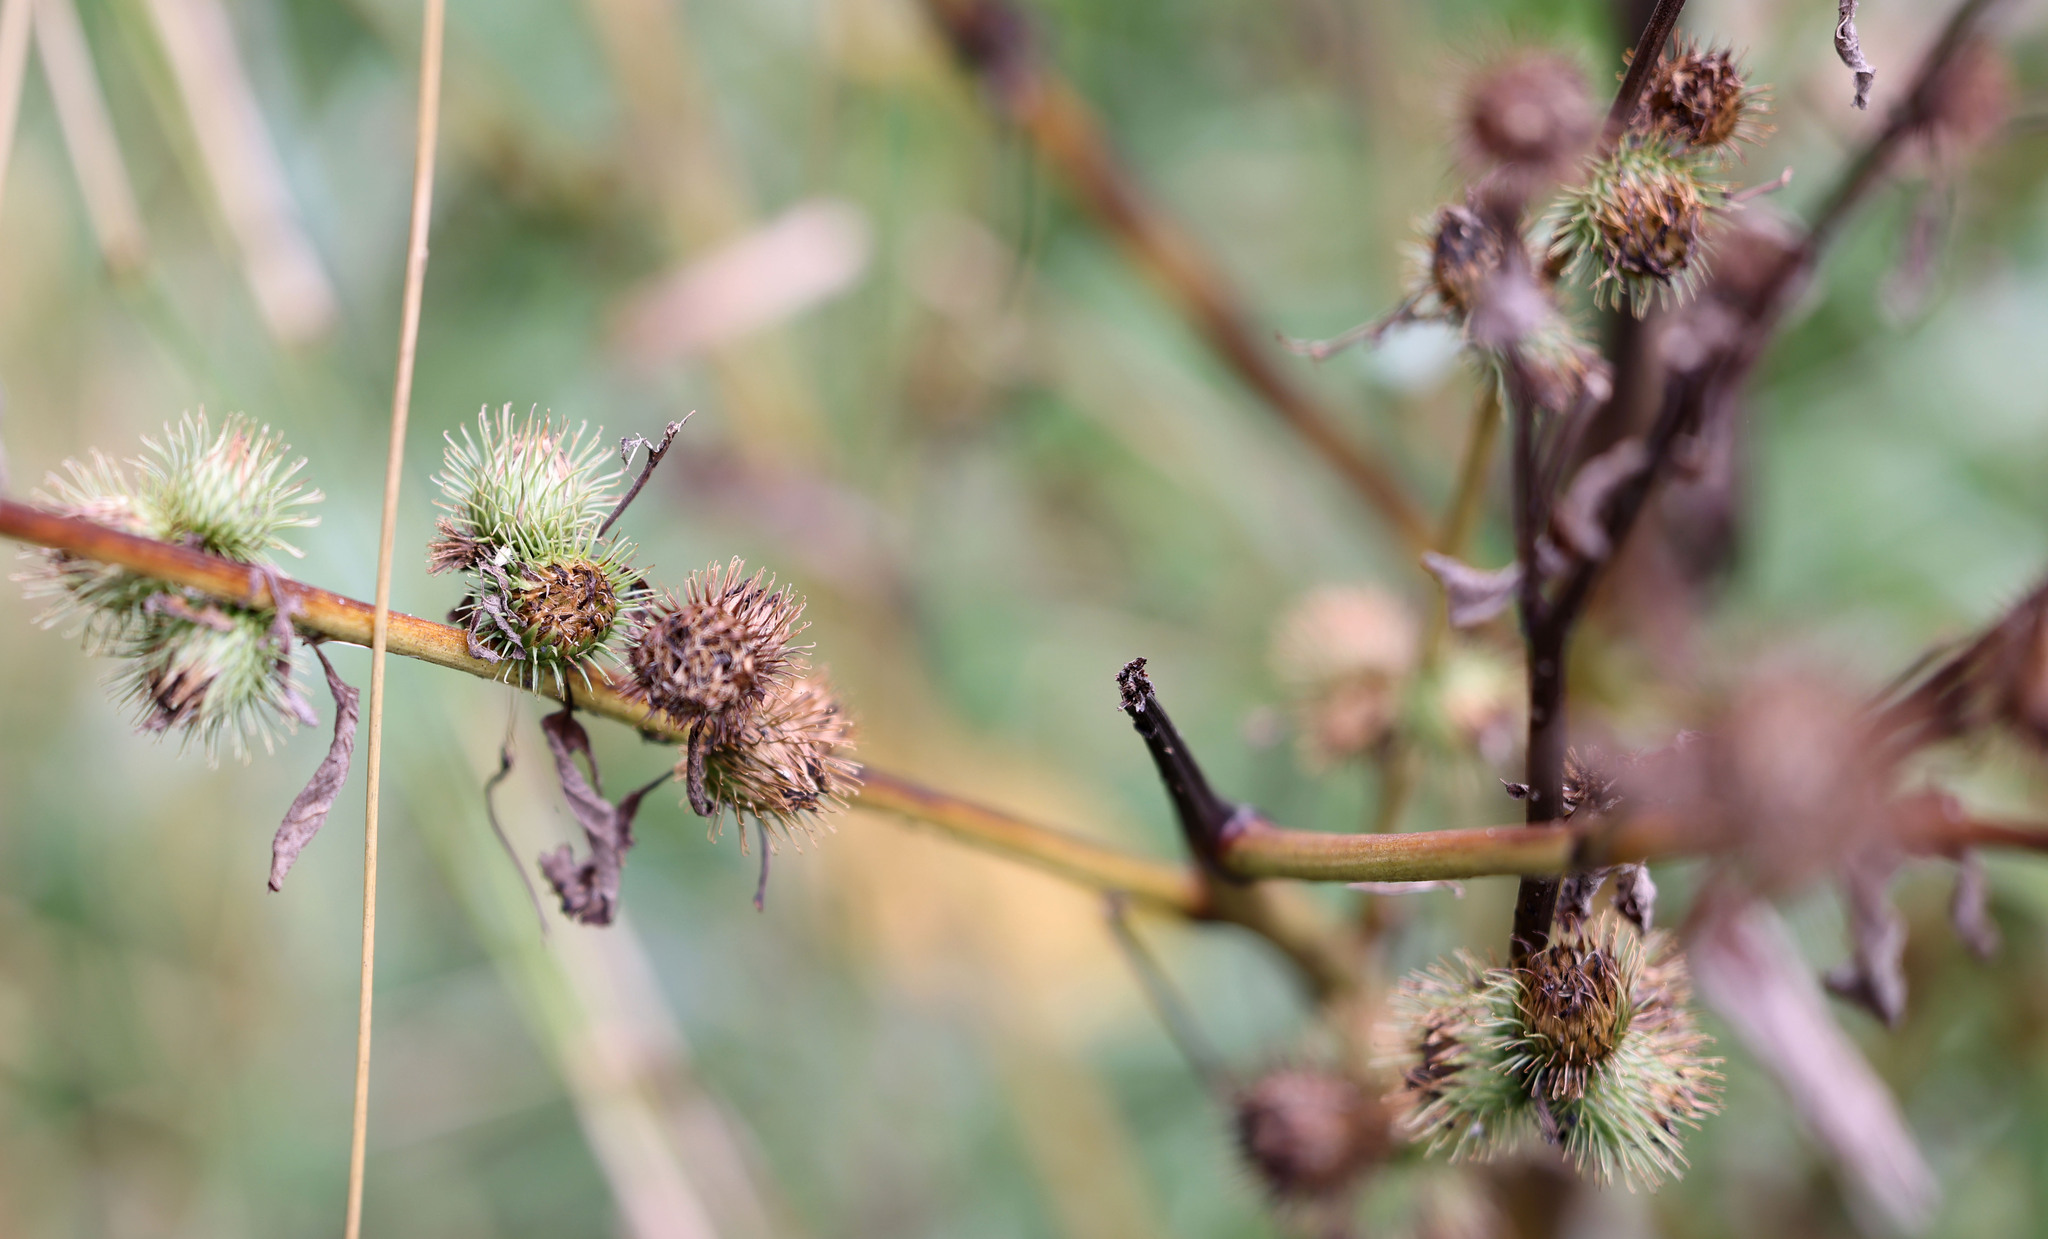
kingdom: Plantae
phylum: Tracheophyta
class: Magnoliopsida
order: Asterales
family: Asteraceae
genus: Arctium
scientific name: Arctium minus
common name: Lesser burdock
